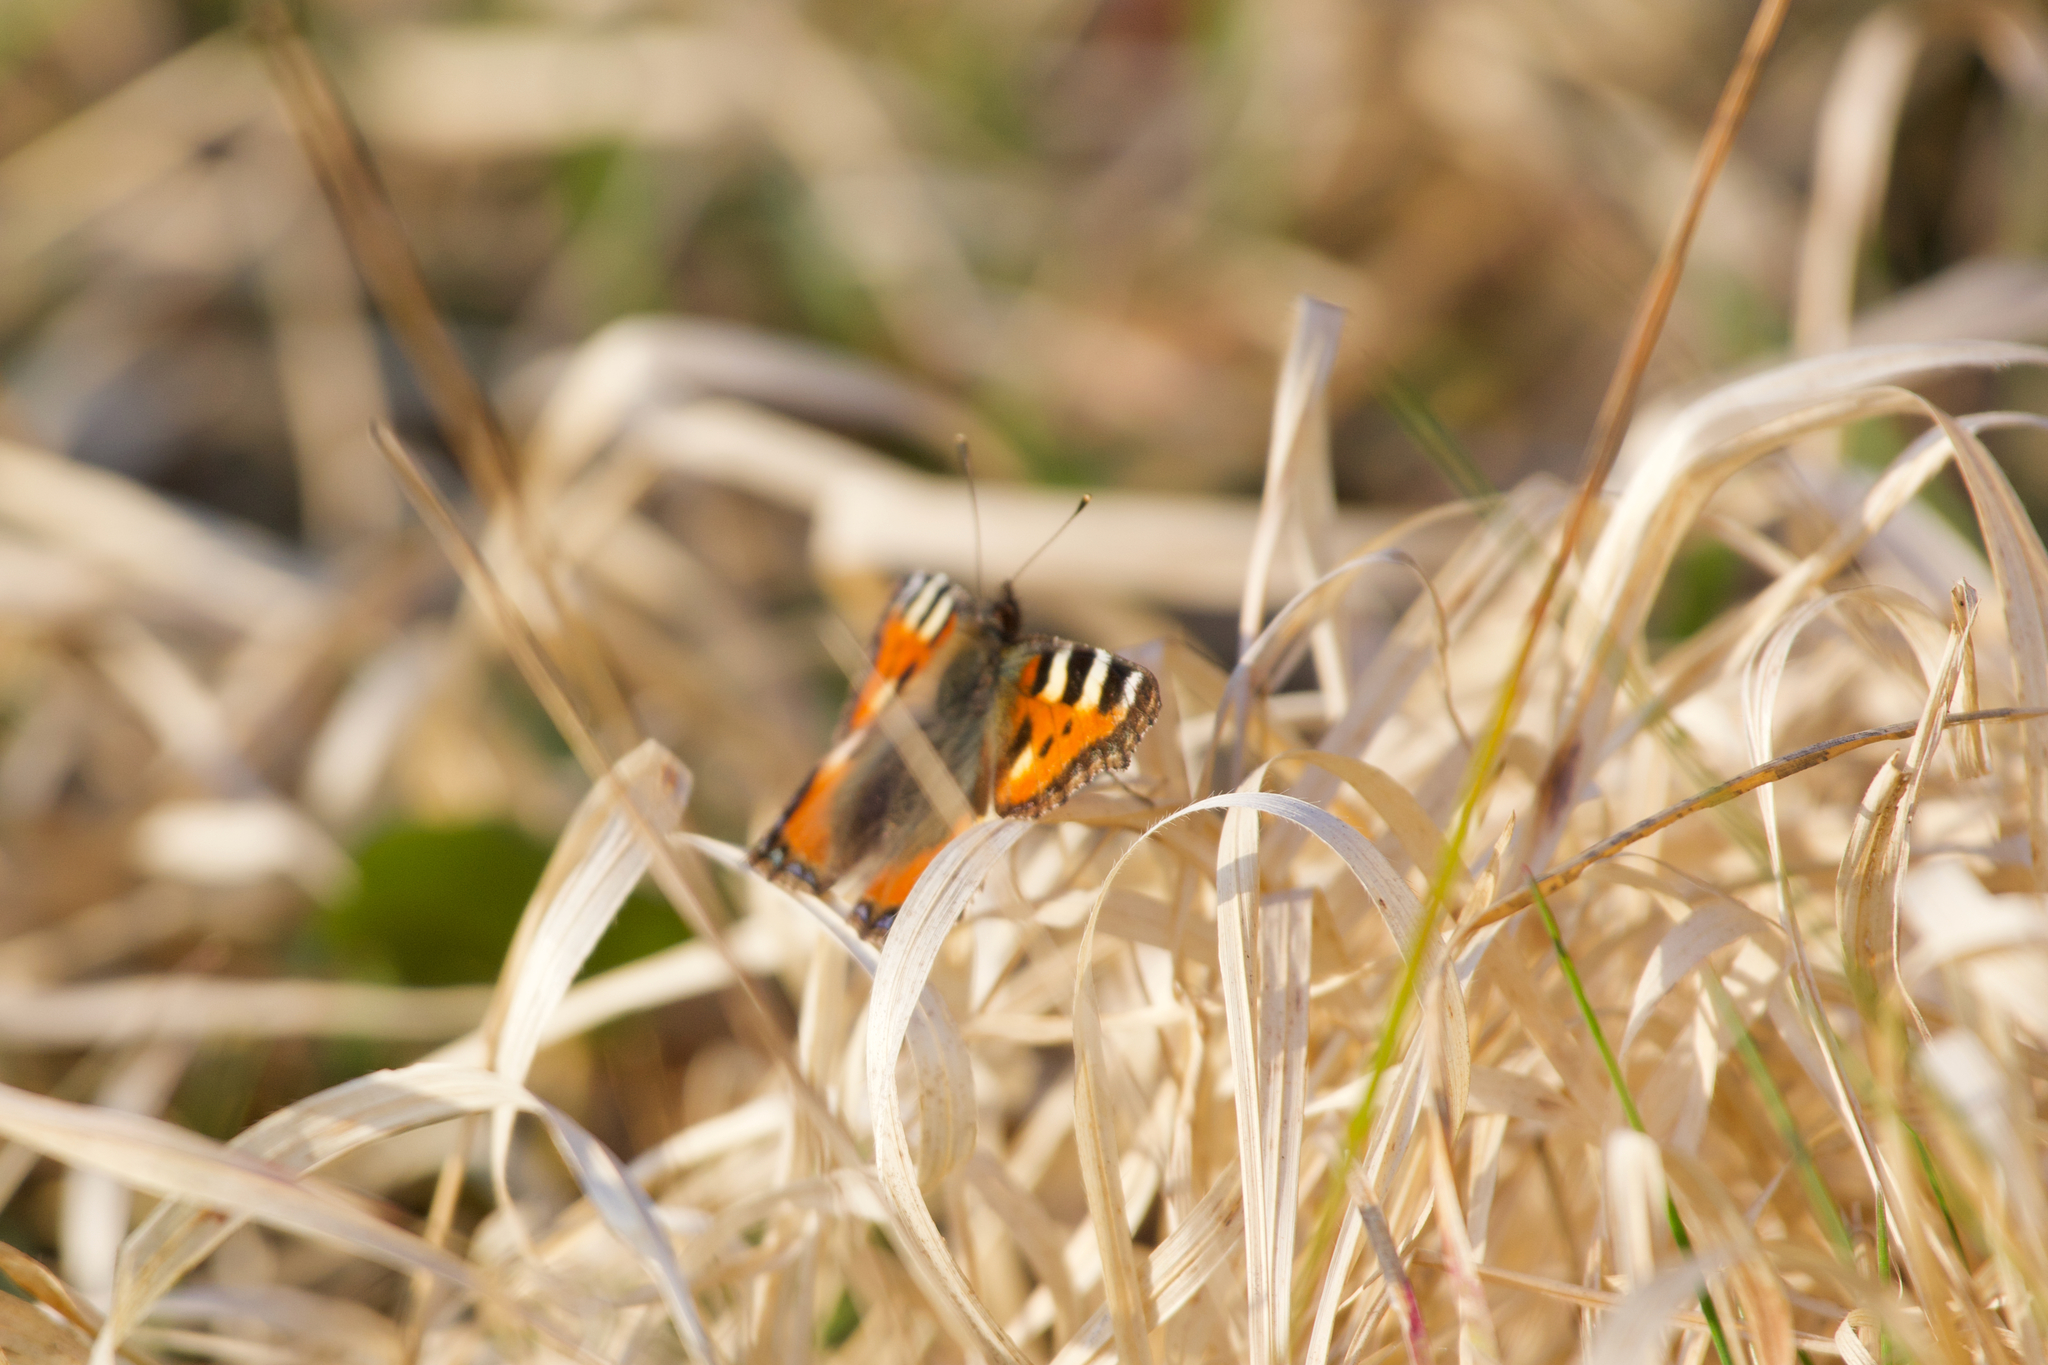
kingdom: Animalia
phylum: Arthropoda
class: Insecta
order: Lepidoptera
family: Nymphalidae
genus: Aglais
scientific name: Aglais urticae
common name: Small tortoiseshell
